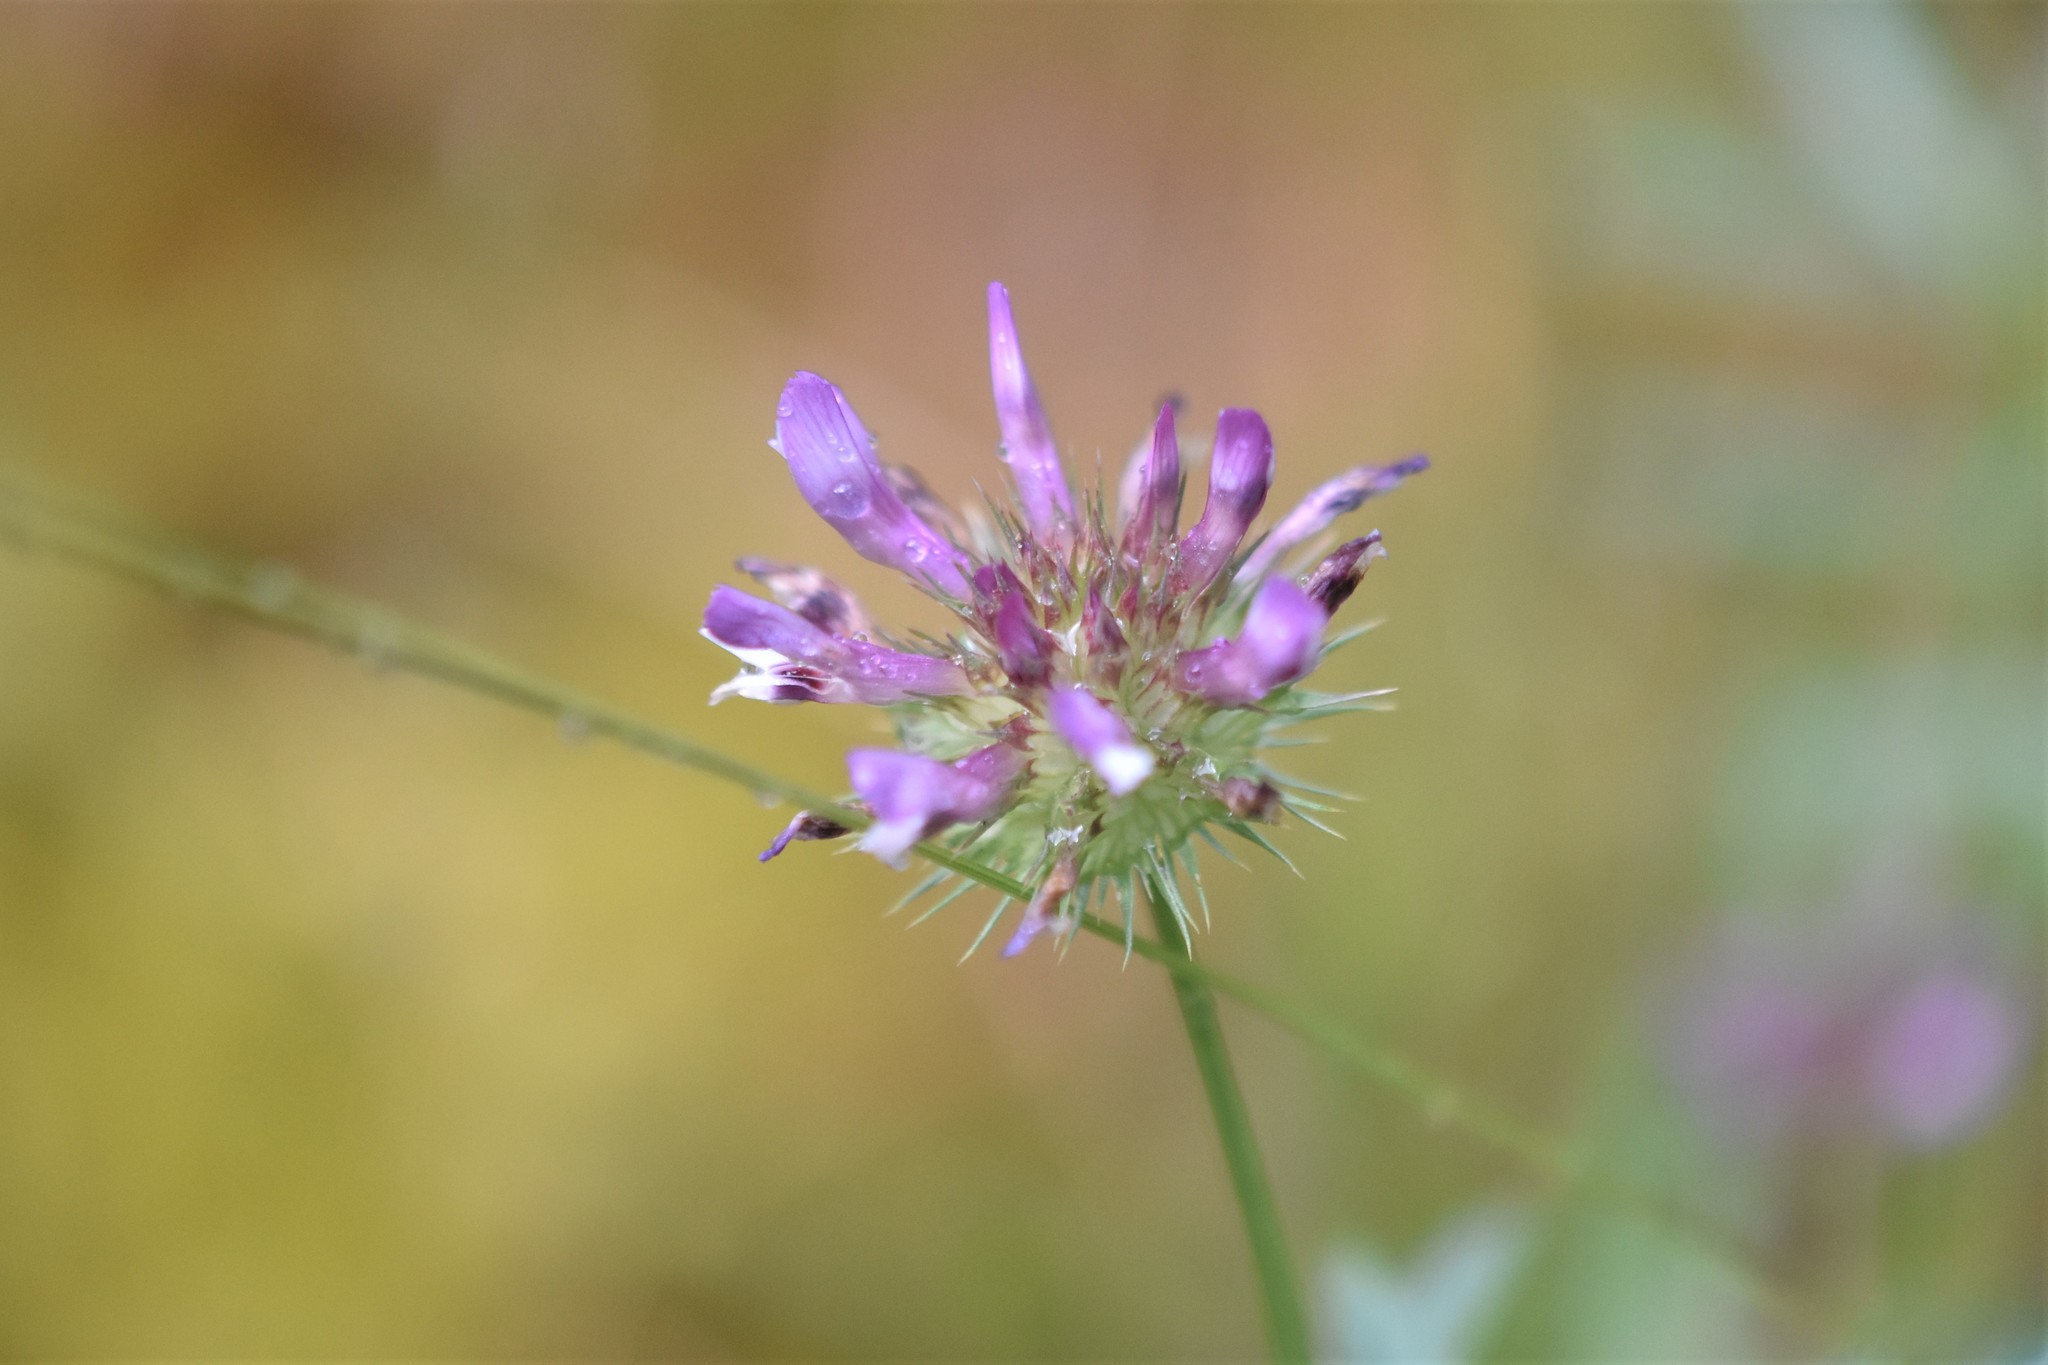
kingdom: Plantae
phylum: Tracheophyta
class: Magnoliopsida
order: Fabales
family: Fabaceae
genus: Trifolium
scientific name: Trifolium willdenovii
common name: Tomcat clover
